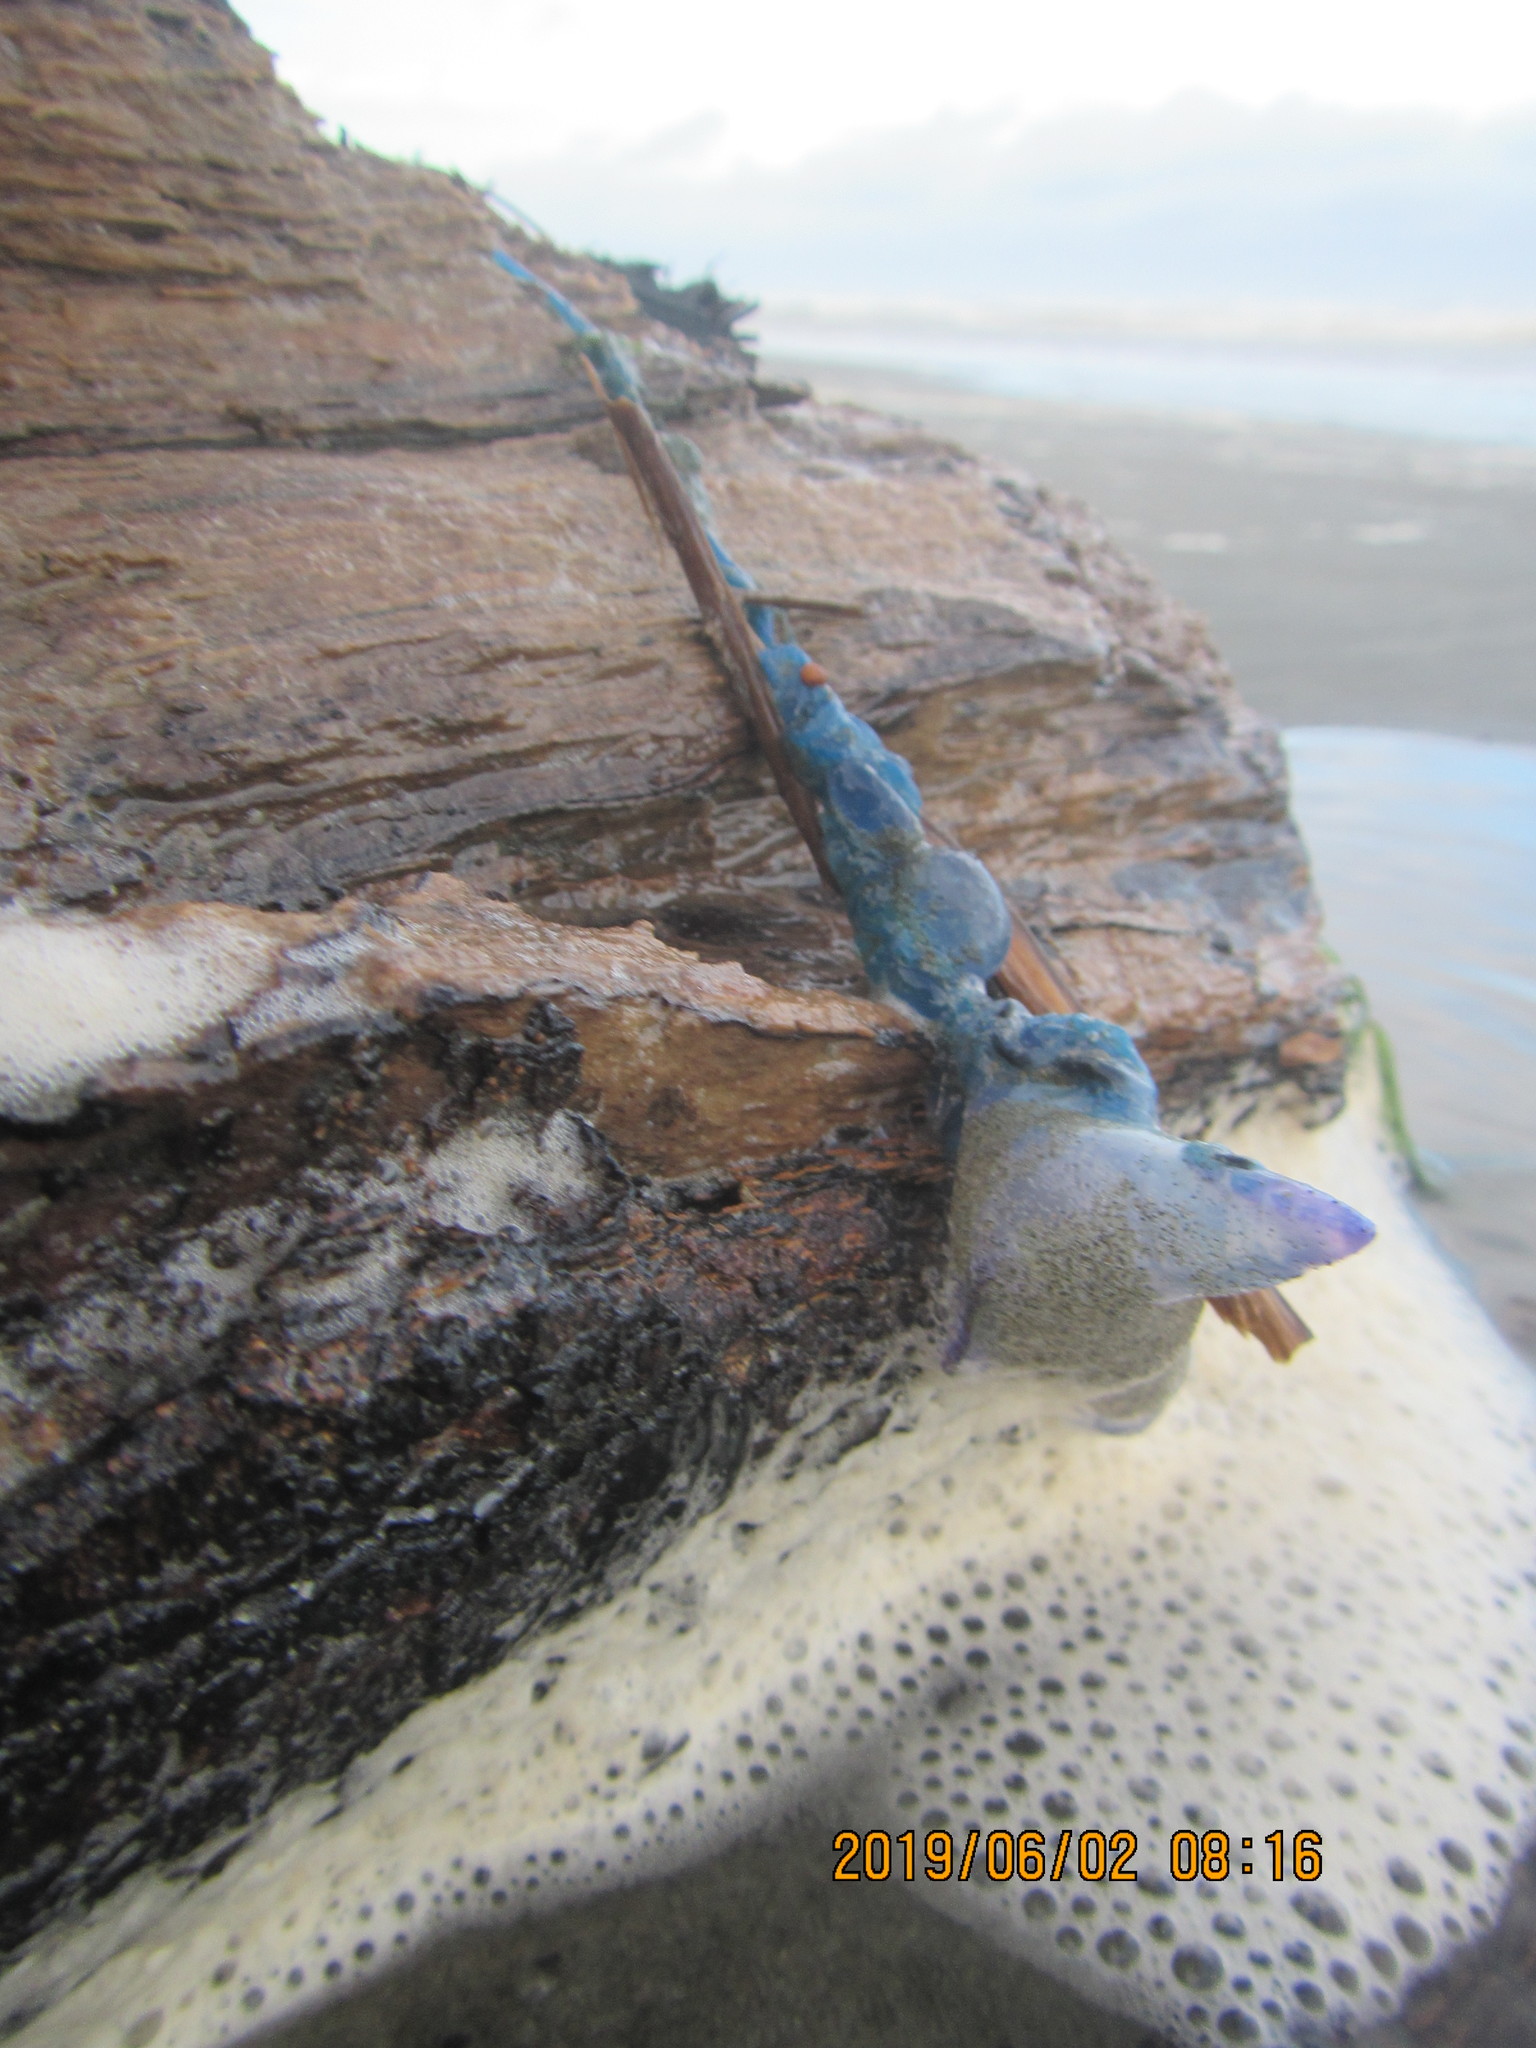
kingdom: Animalia
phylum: Cnidaria
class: Hydrozoa
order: Siphonophorae
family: Physaliidae
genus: Physalia
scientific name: Physalia physalis
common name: Portuguese man-of-war
